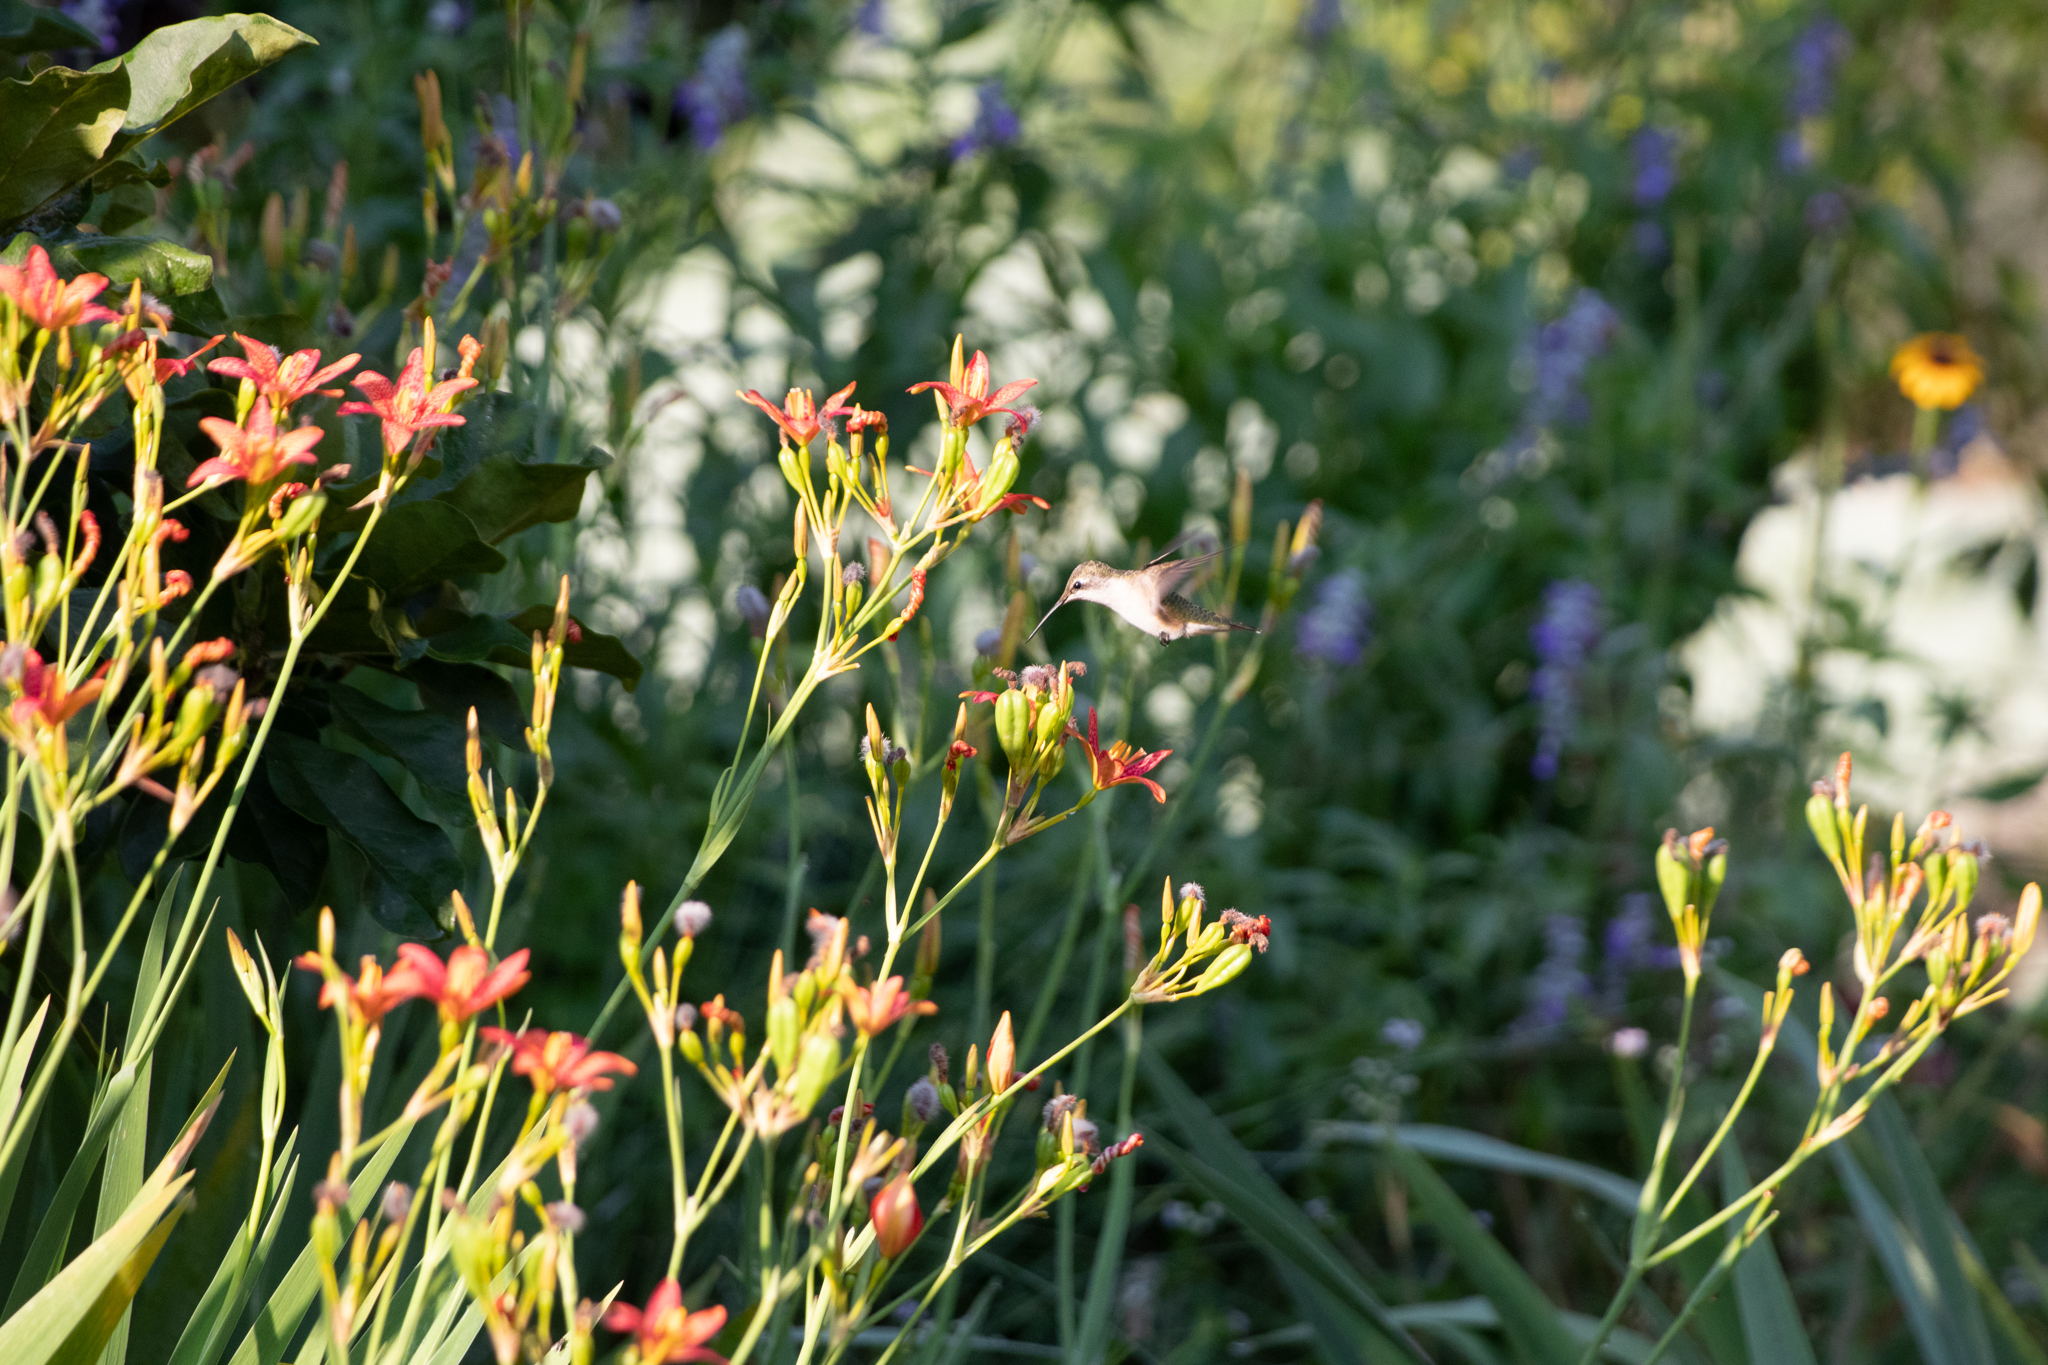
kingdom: Animalia
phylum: Chordata
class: Aves
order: Apodiformes
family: Trochilidae
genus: Archilochus
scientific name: Archilochus colubris
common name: Ruby-throated hummingbird
